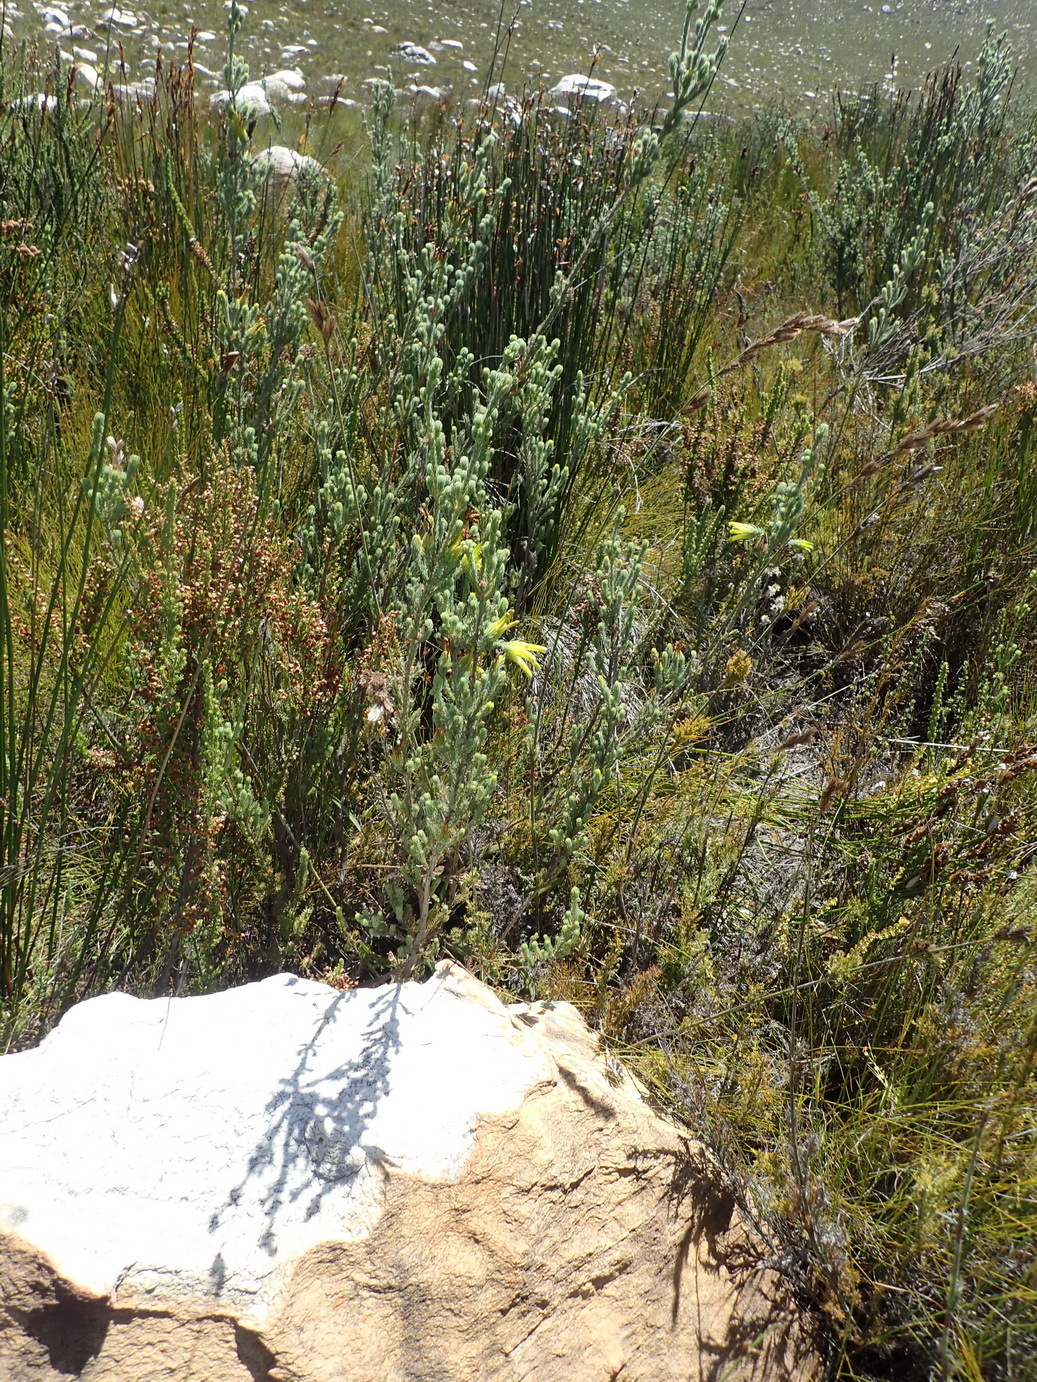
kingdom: Plantae
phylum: Tracheophyta
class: Magnoliopsida
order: Ericales
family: Ericaceae
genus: Erica
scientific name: Erica unicolor
